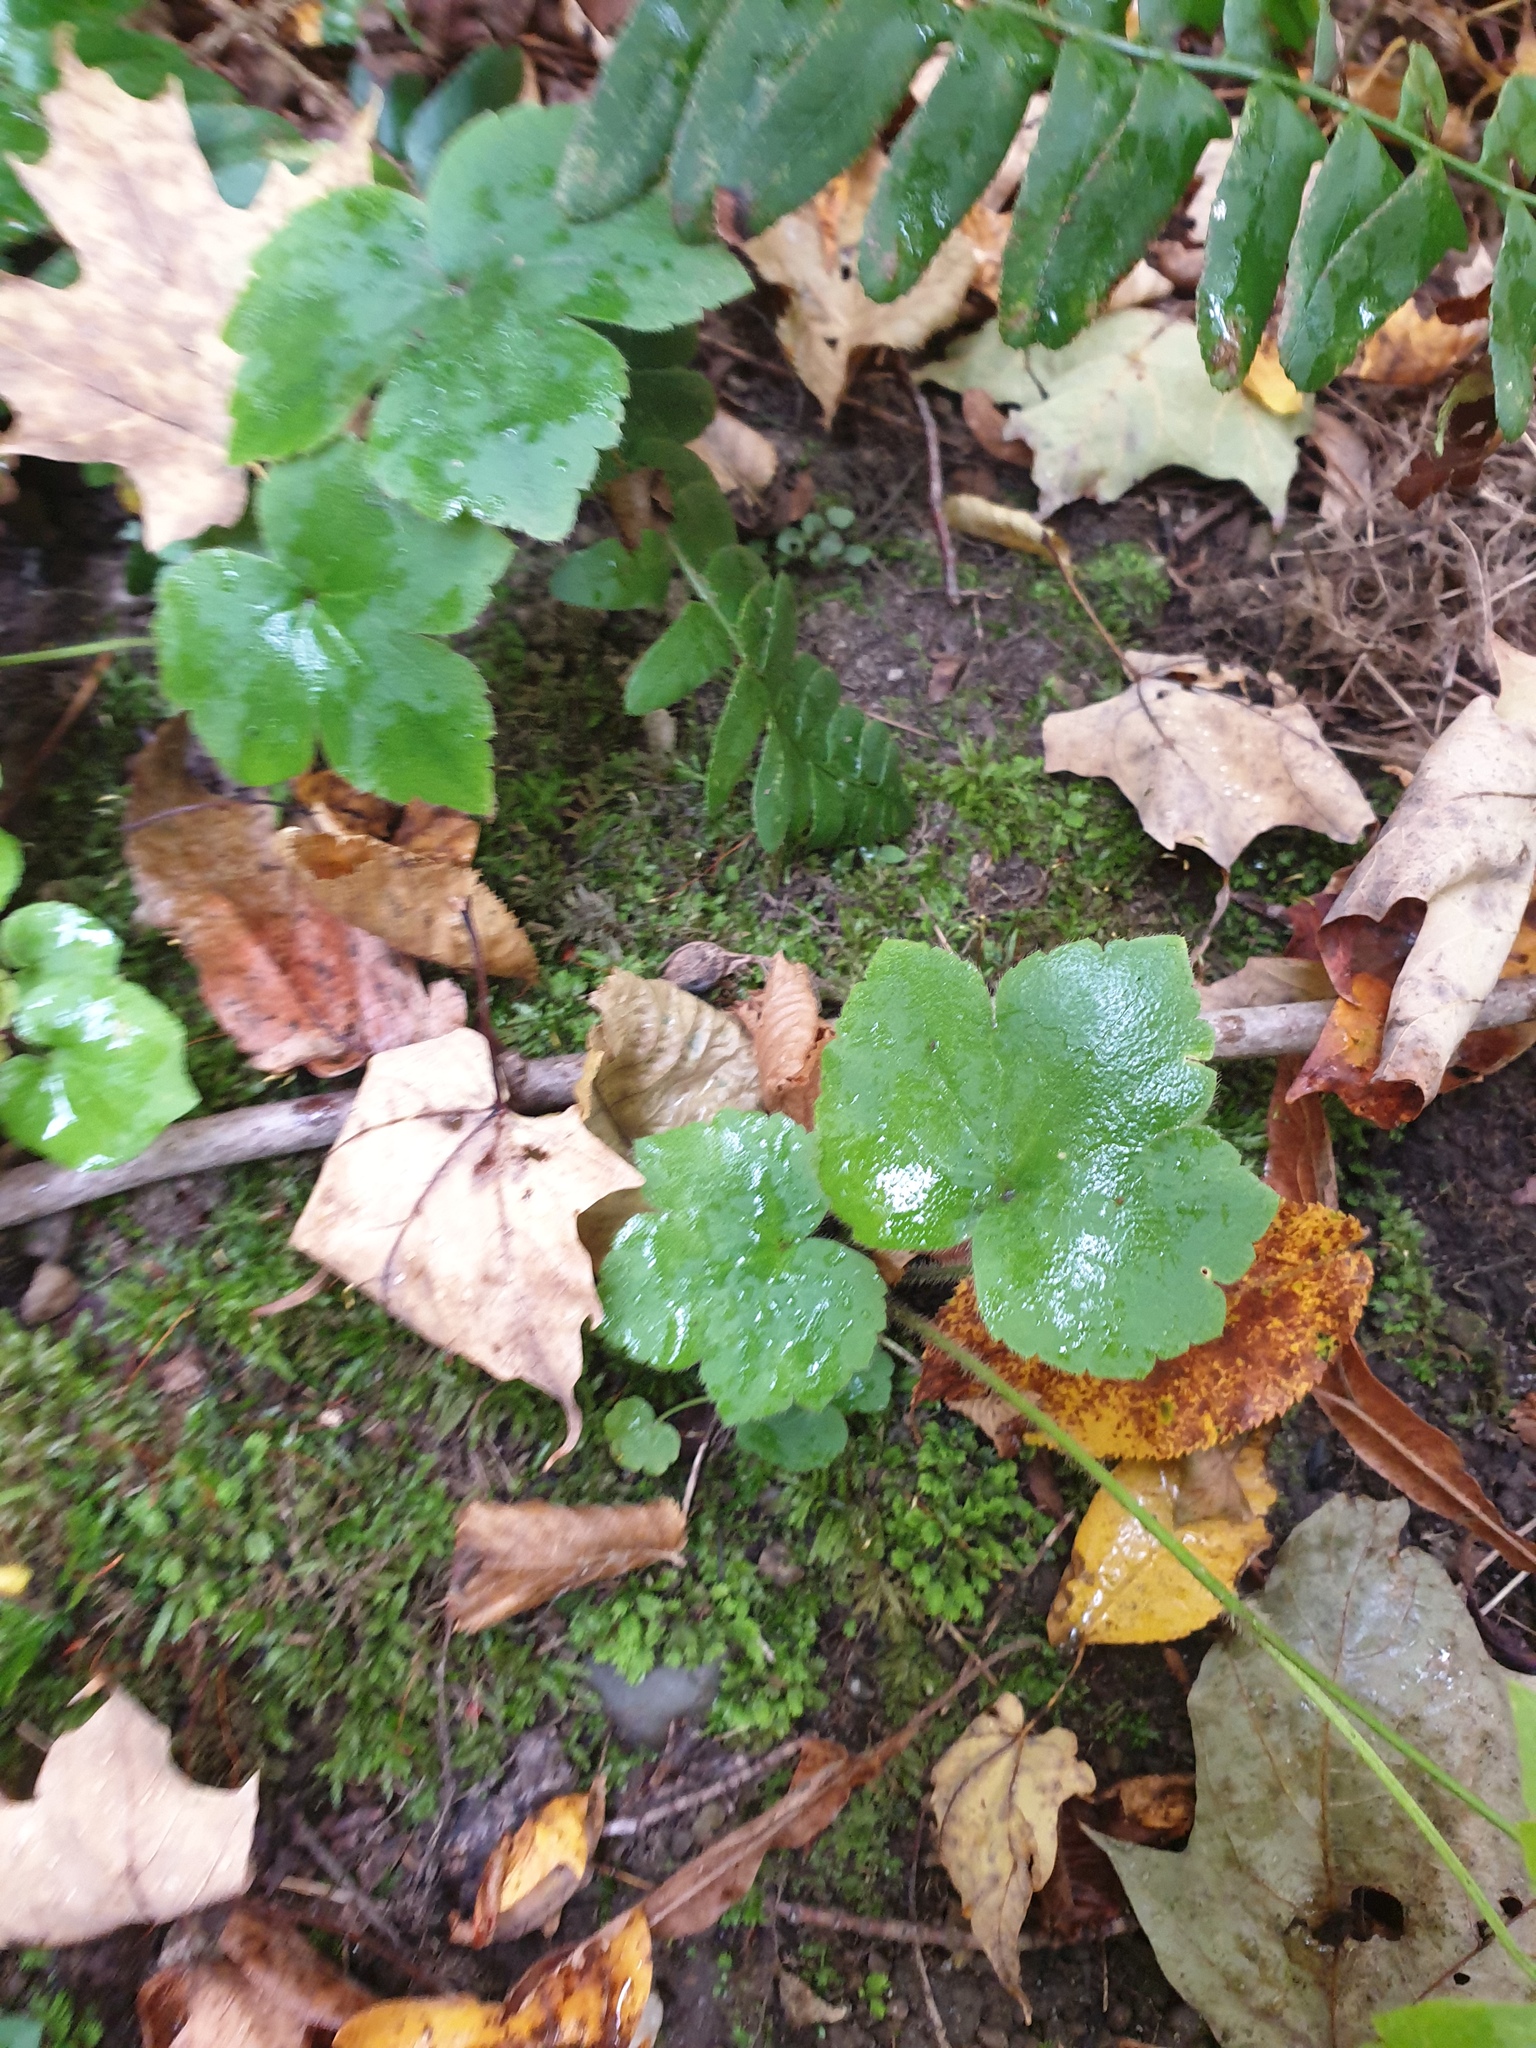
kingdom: Plantae
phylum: Tracheophyta
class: Magnoliopsida
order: Ranunculales
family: Ranunculaceae
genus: Ranunculus
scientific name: Ranunculus recurvatus
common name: Blisterwort
